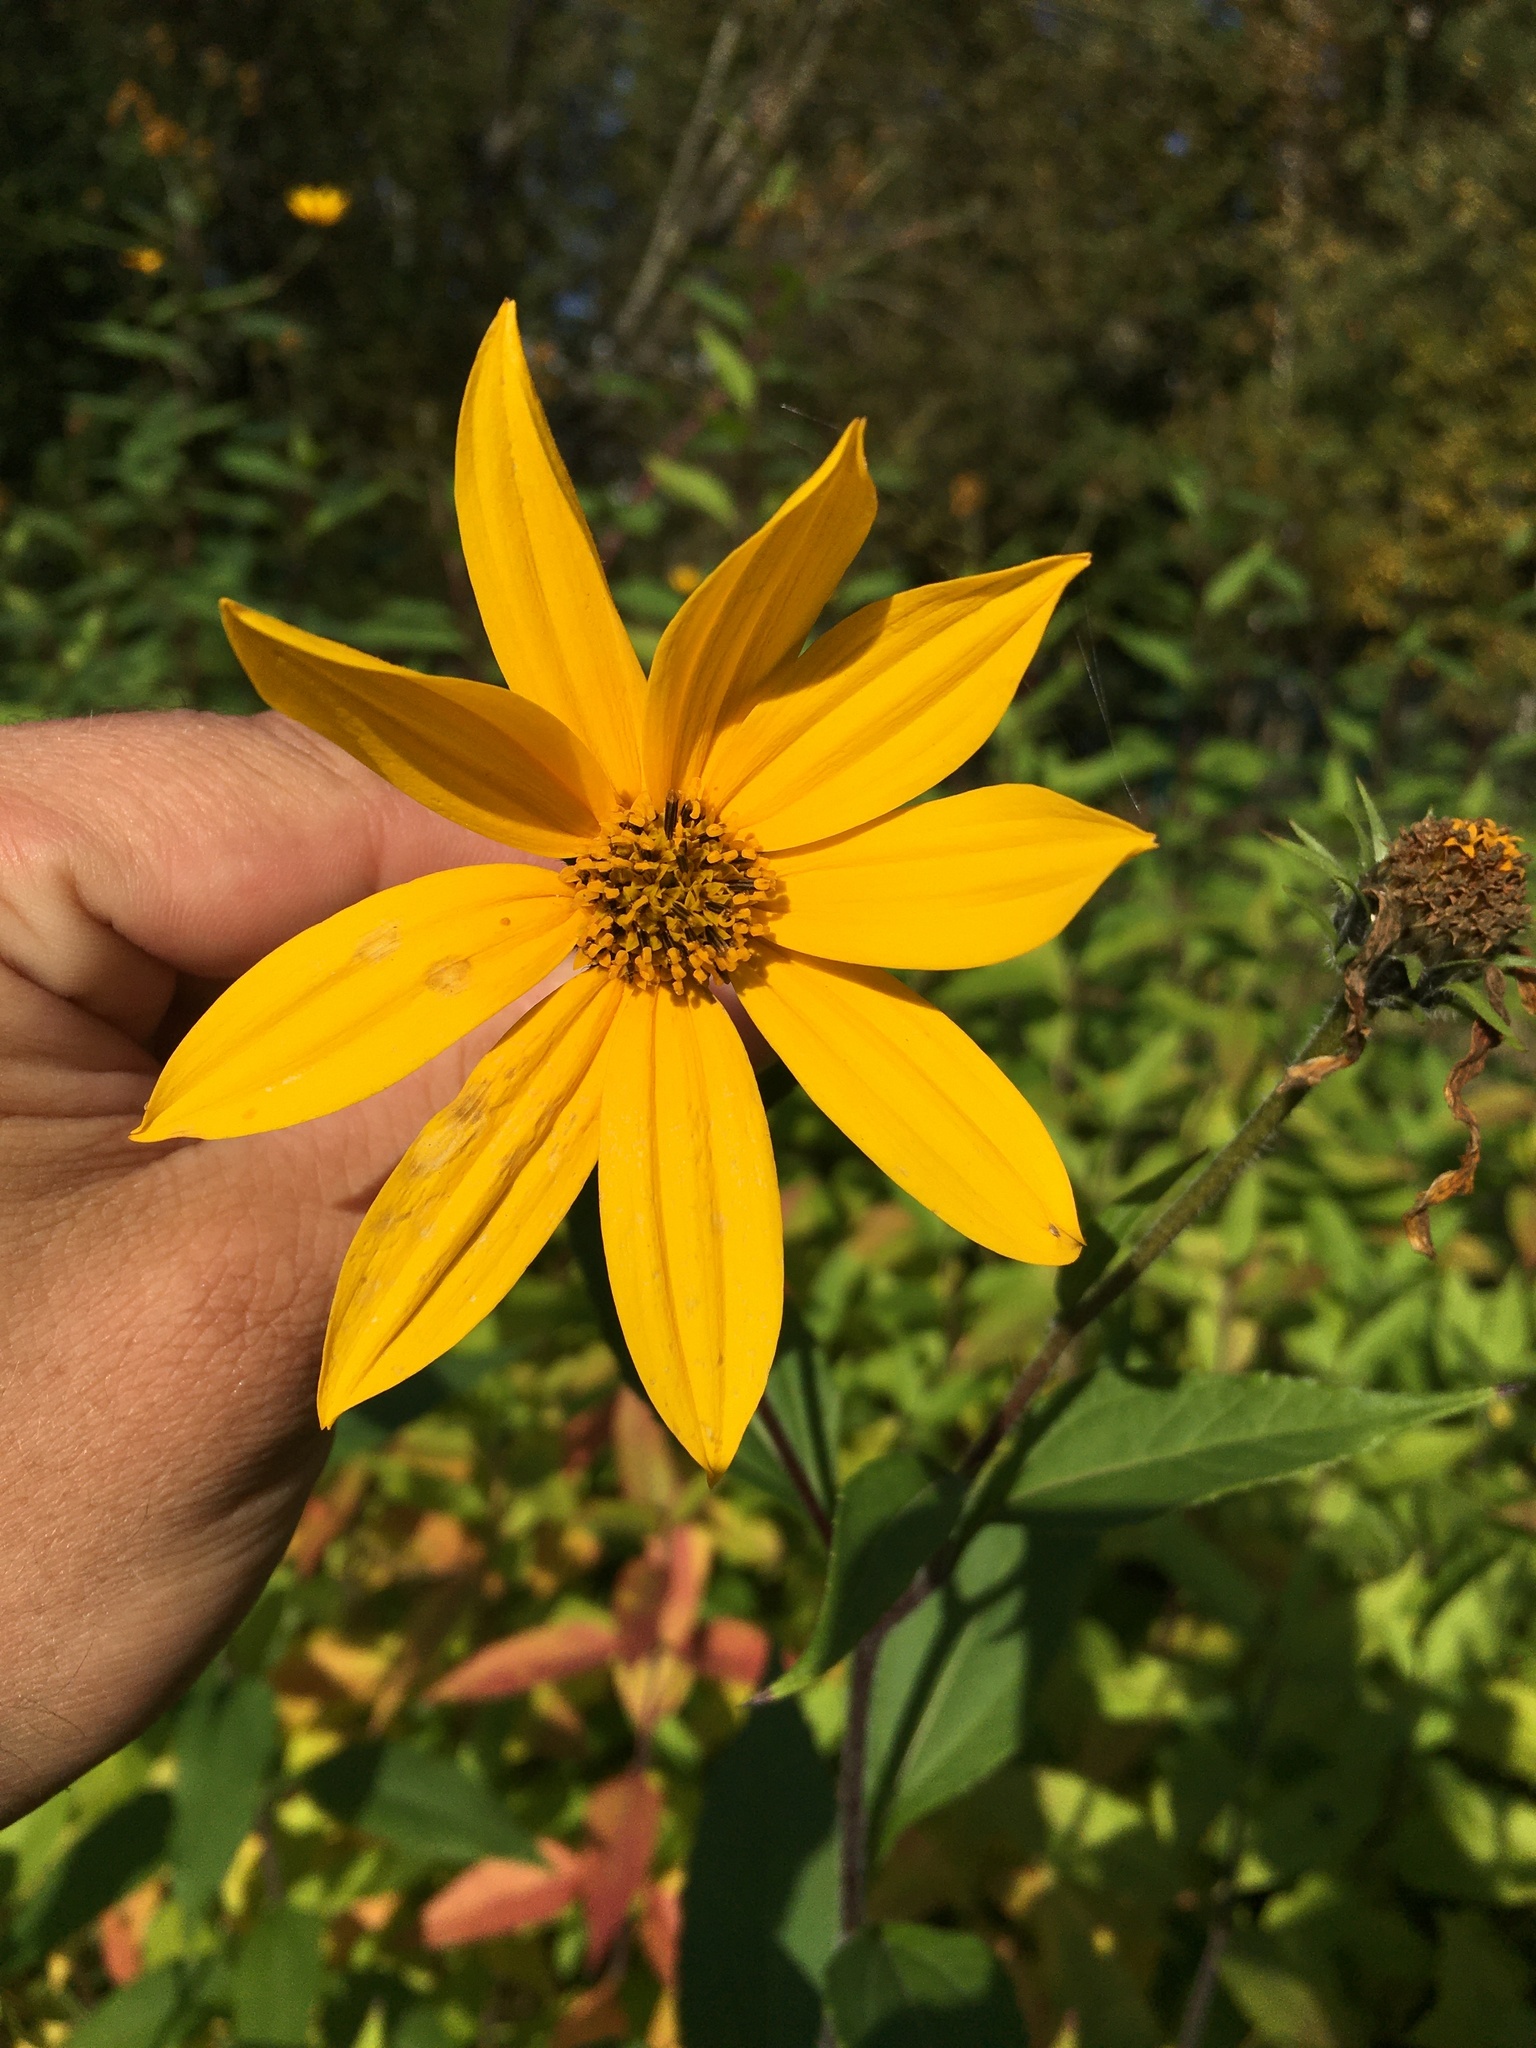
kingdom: Plantae
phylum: Tracheophyta
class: Magnoliopsida
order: Asterales
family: Asteraceae
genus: Helianthus
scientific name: Helianthus tuberosus
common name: Jerusalem artichoke
